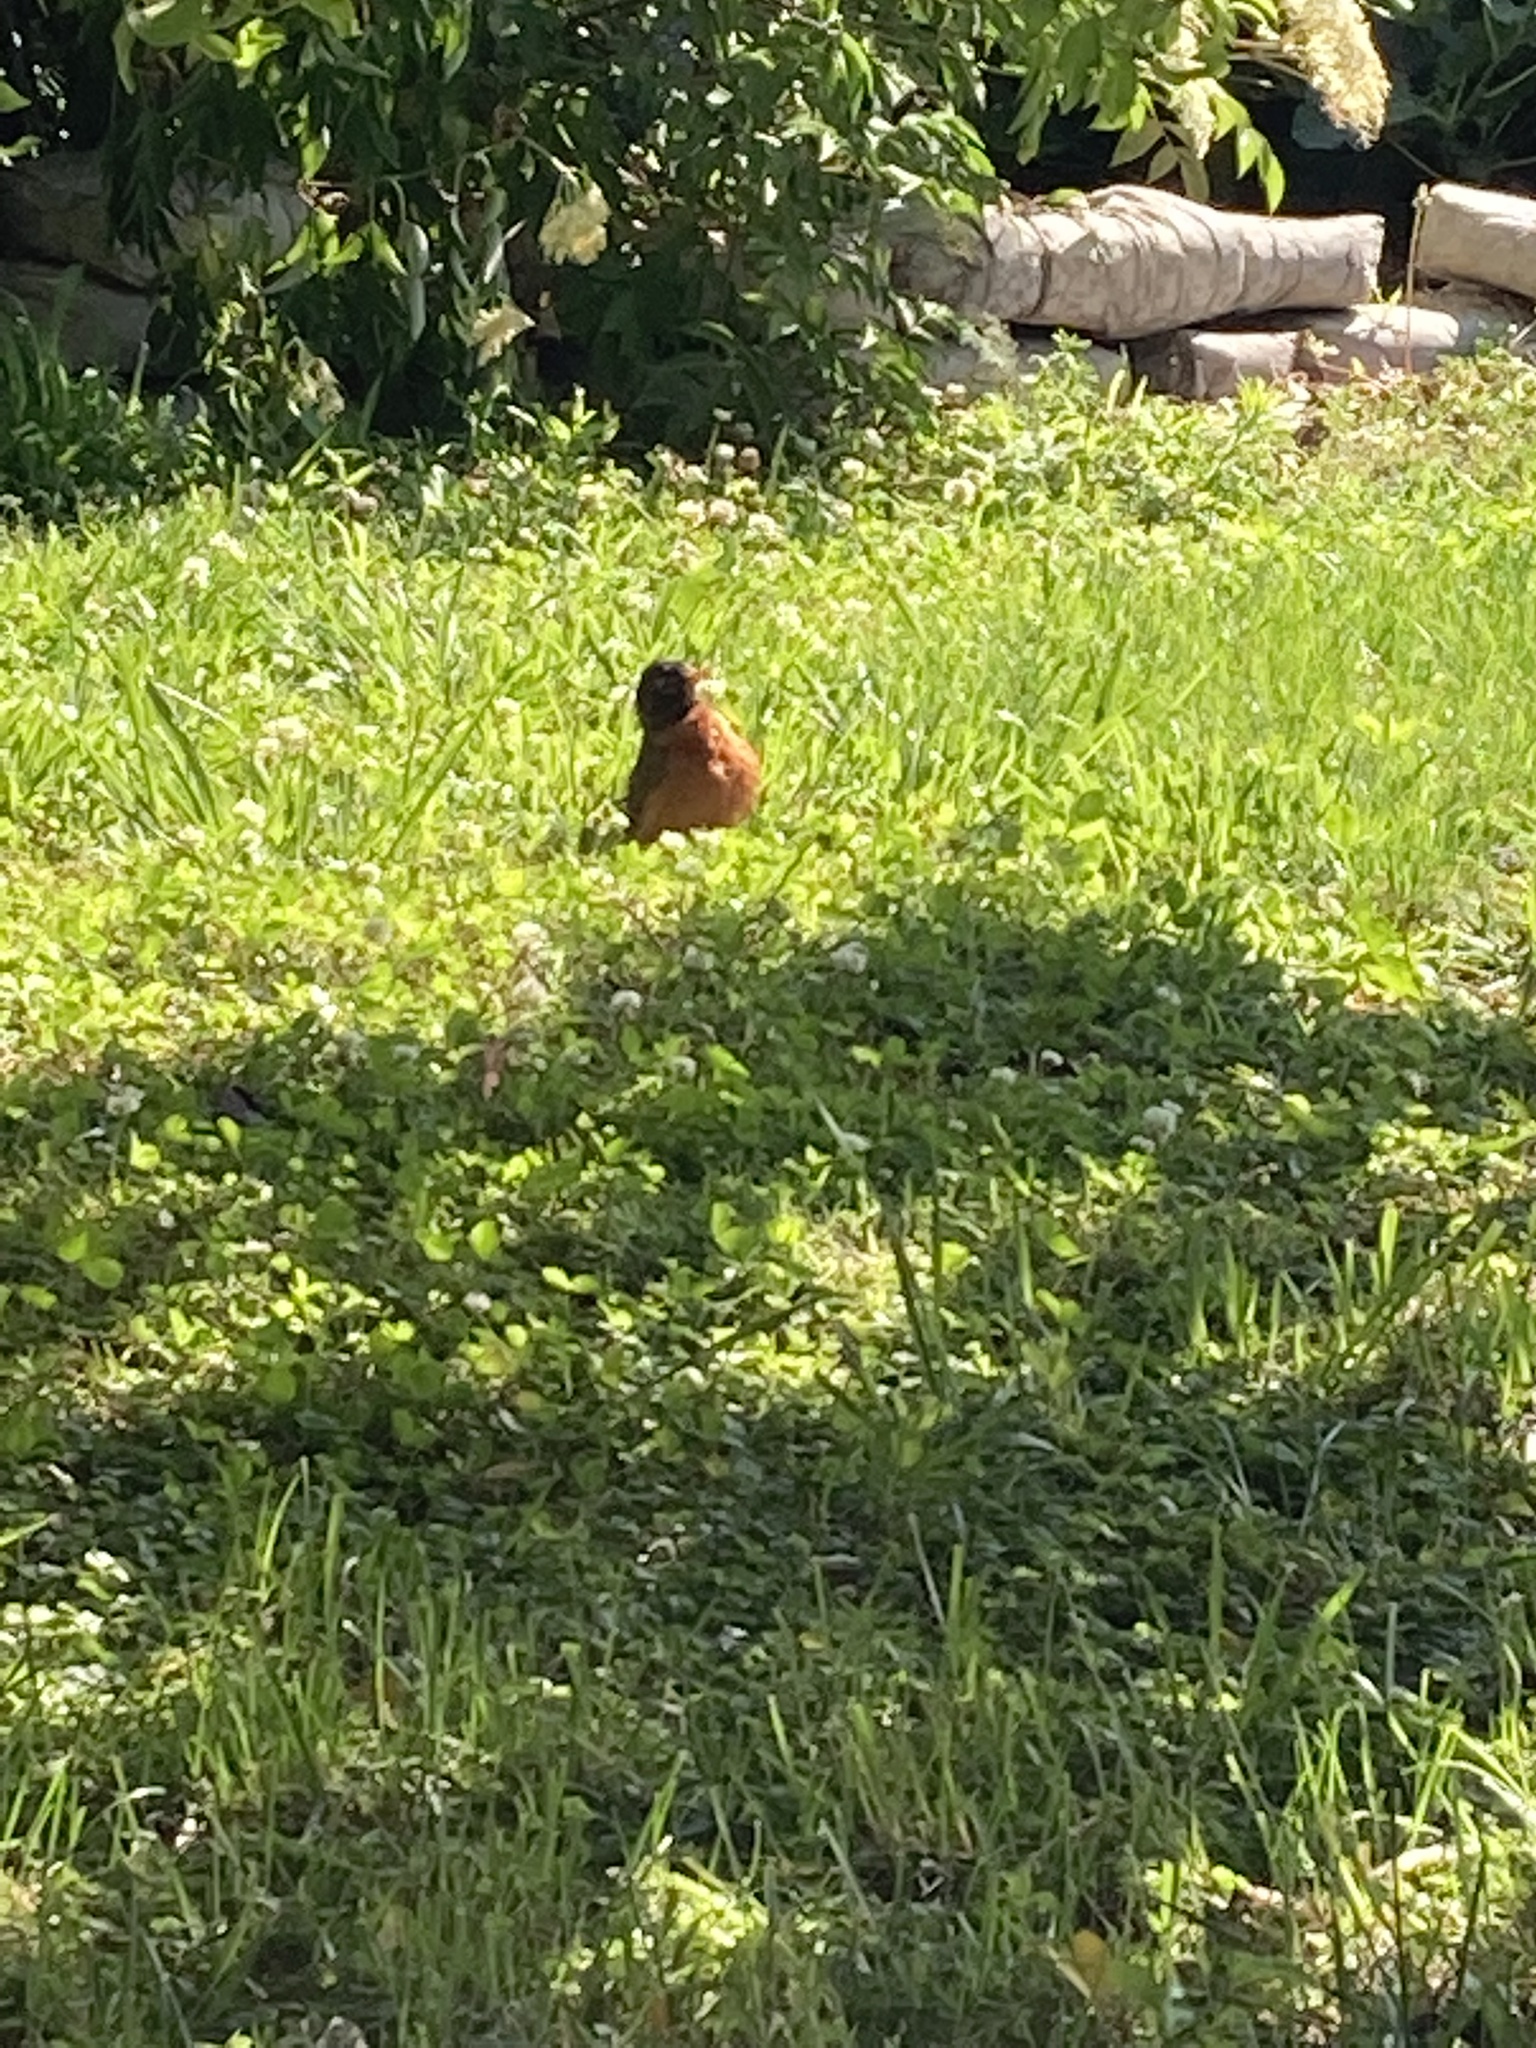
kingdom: Animalia
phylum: Chordata
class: Aves
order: Passeriformes
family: Turdidae
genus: Turdus
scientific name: Turdus migratorius
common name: American robin
